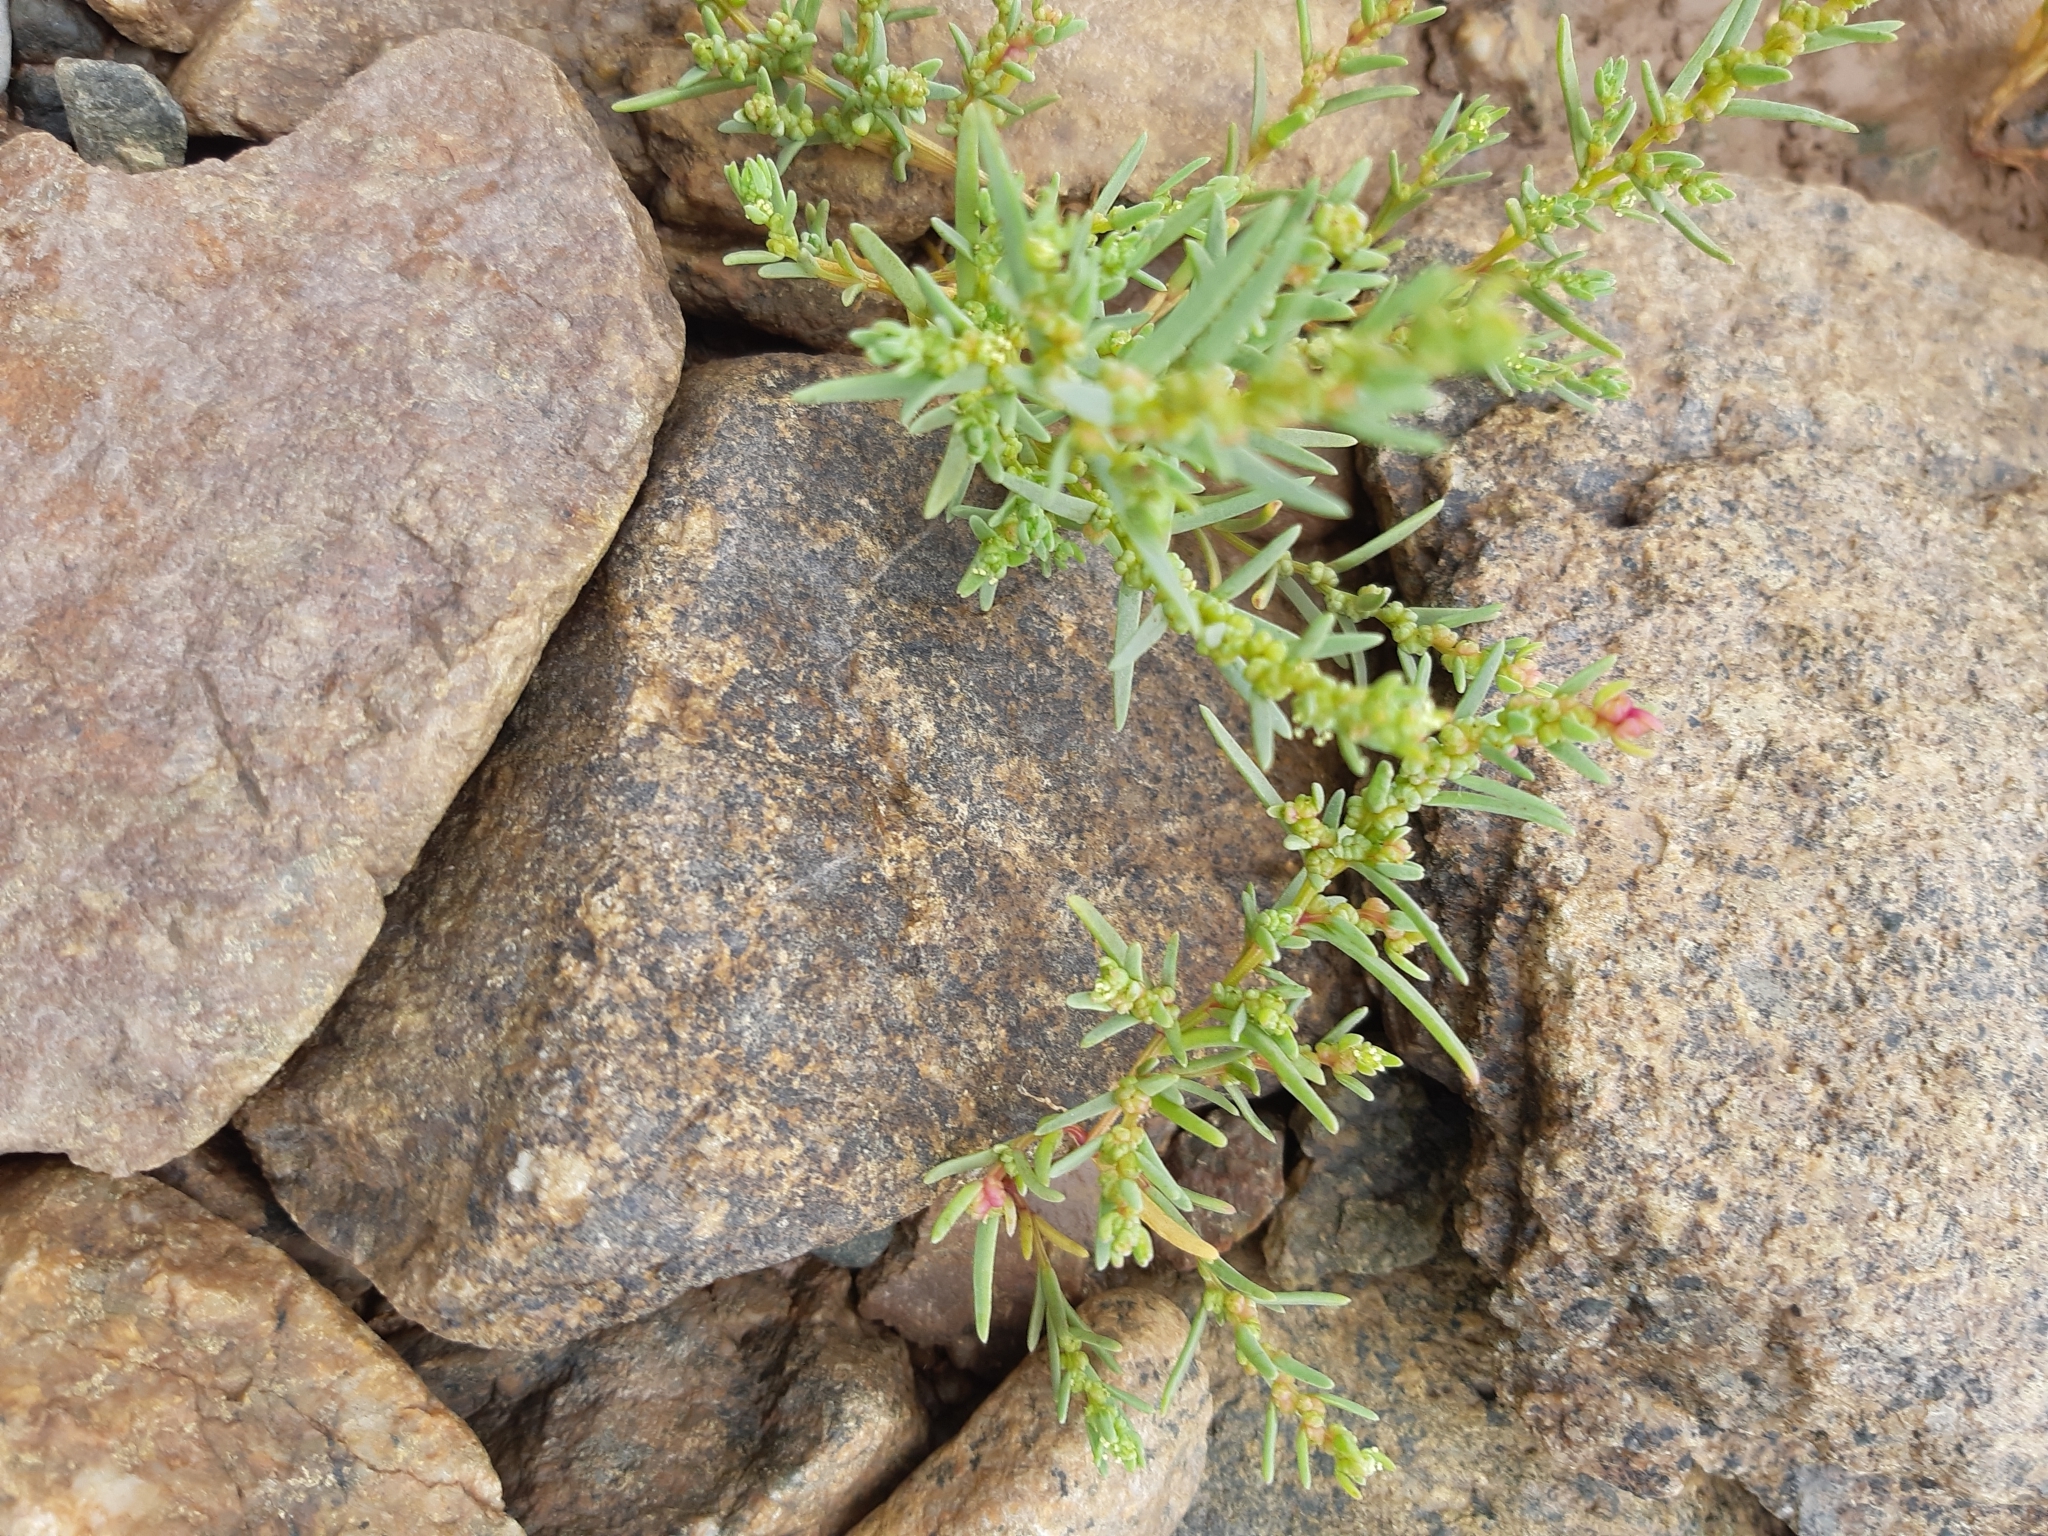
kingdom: Plantae
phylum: Tracheophyta
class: Magnoliopsida
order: Caryophyllales
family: Amaranthaceae
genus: Suaeda
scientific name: Suaeda maritima
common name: Annual sea-blite
